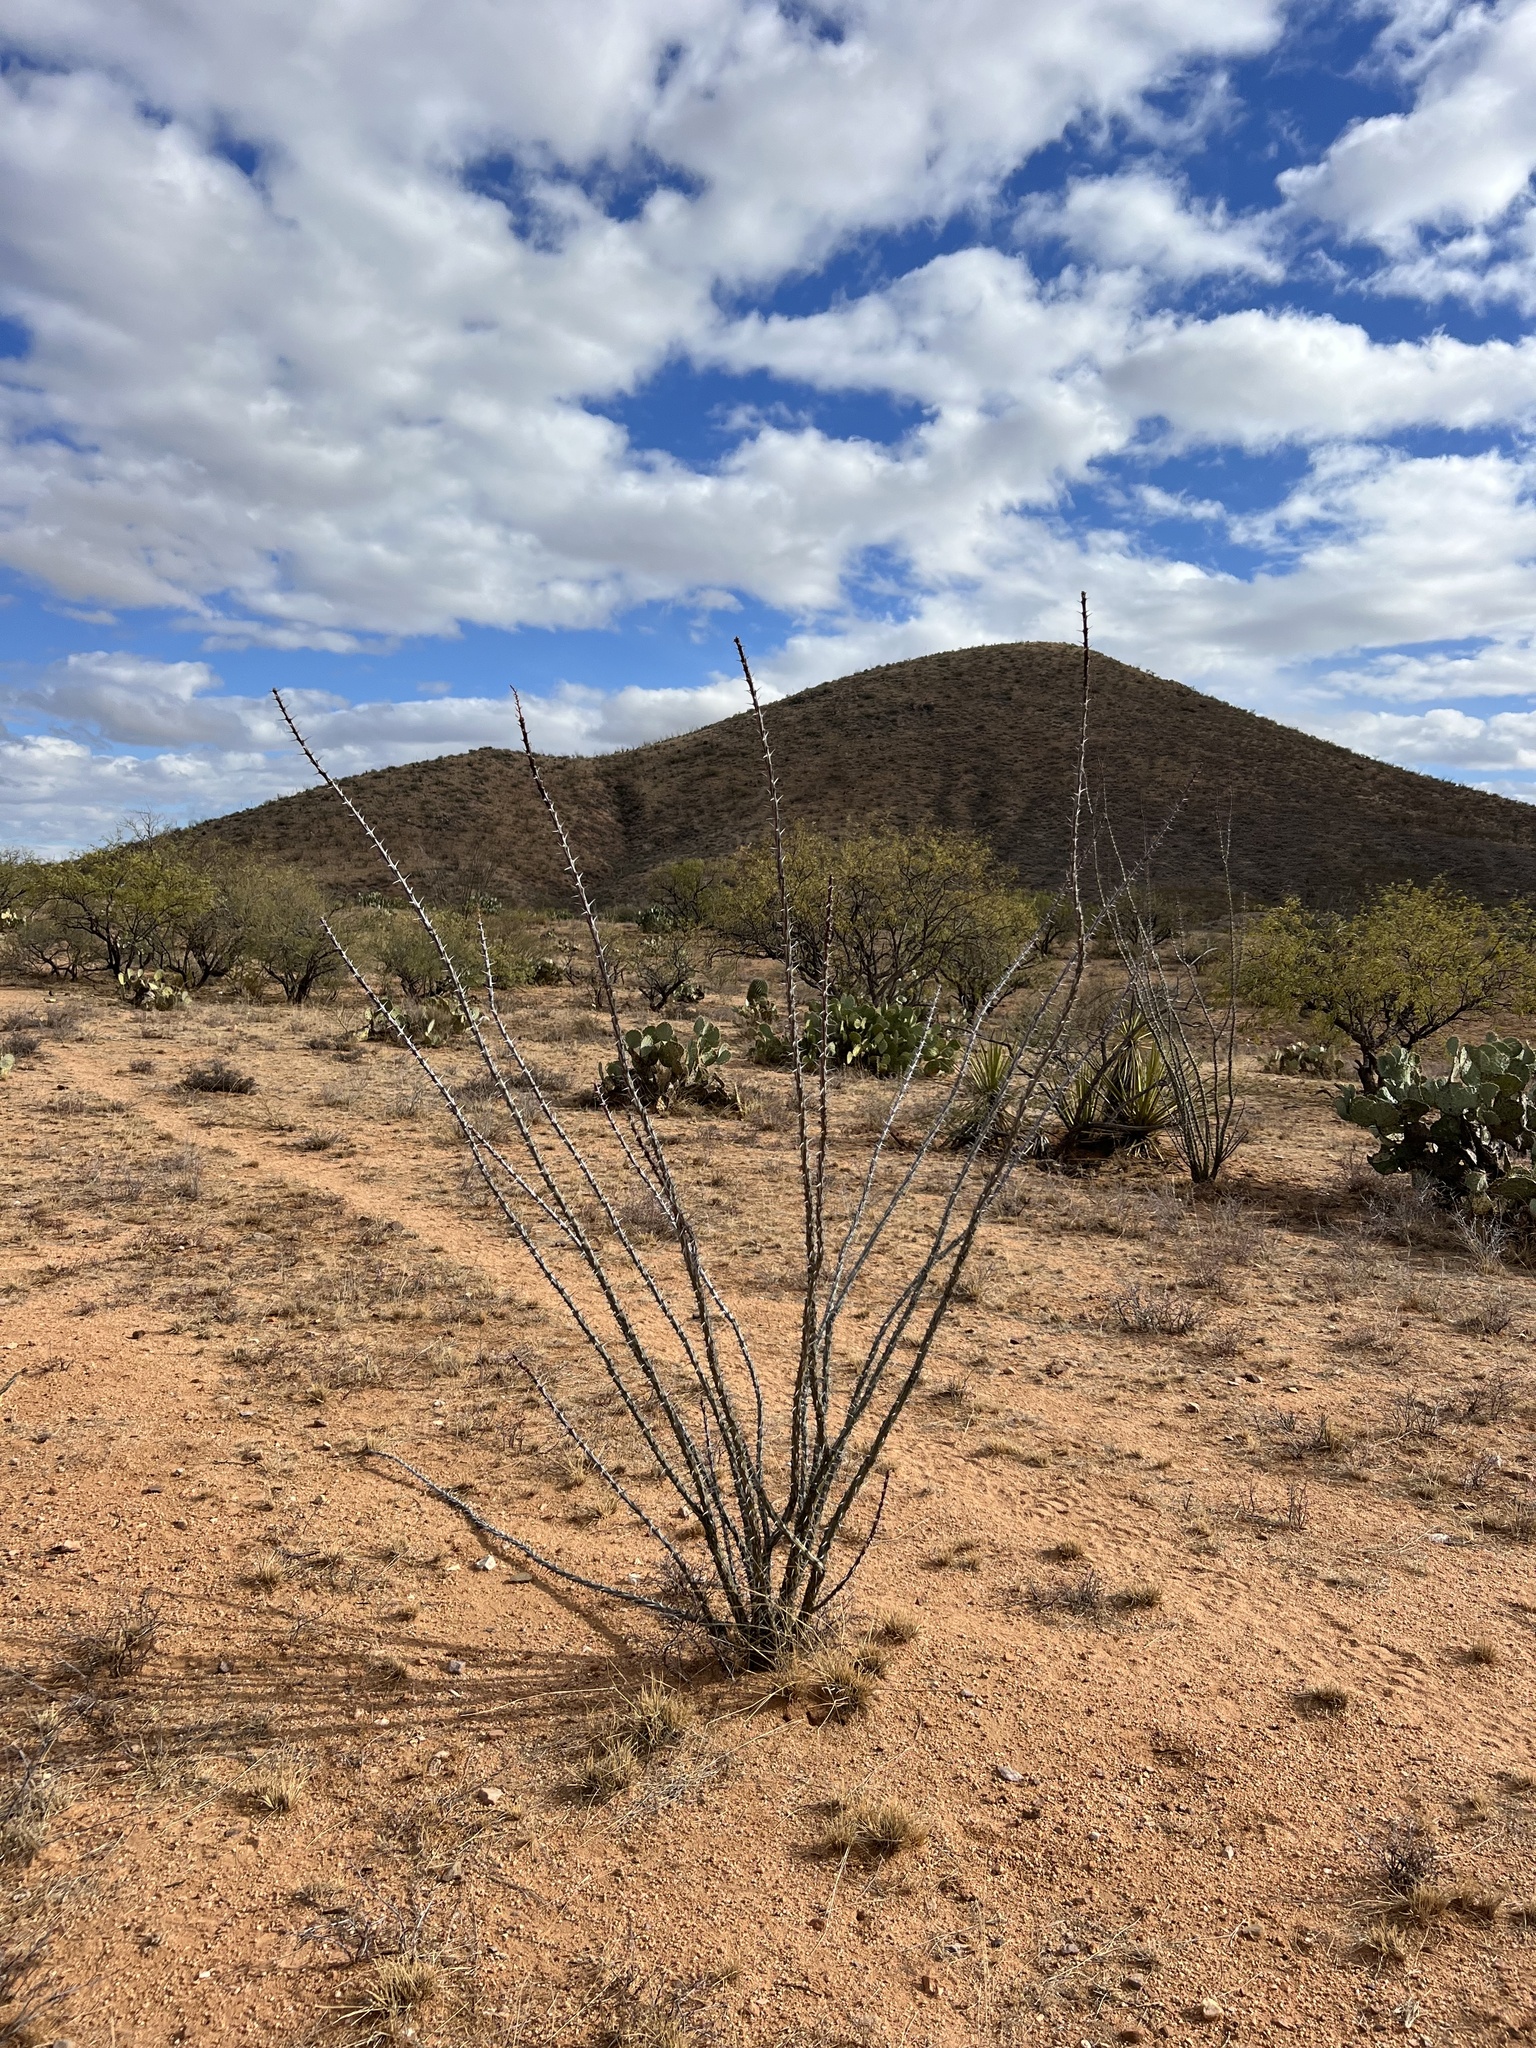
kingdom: Plantae
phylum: Tracheophyta
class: Magnoliopsida
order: Ericales
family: Fouquieriaceae
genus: Fouquieria
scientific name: Fouquieria splendens
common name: Vine-cactus
